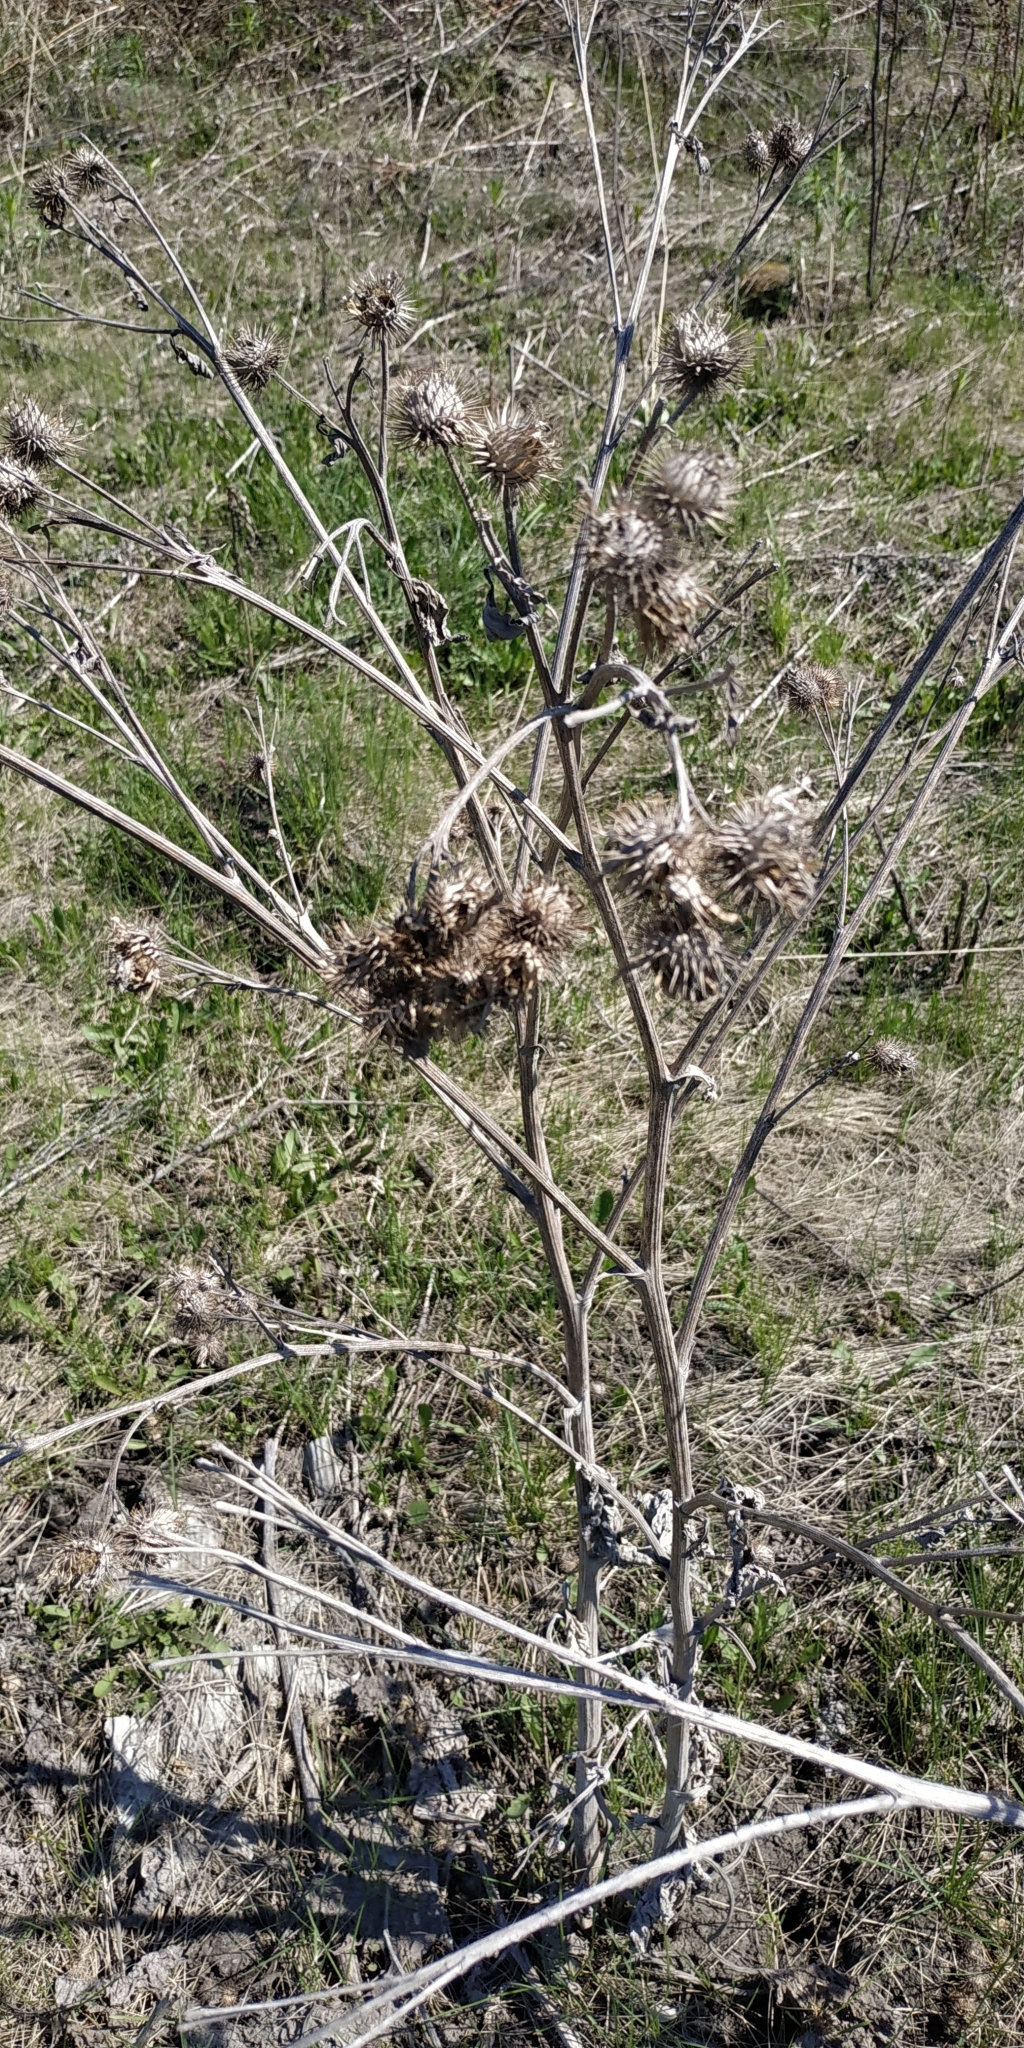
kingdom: Plantae
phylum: Tracheophyta
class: Magnoliopsida
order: Asterales
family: Asteraceae
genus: Arctium
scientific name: Arctium tomentosum
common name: Woolly burdock
